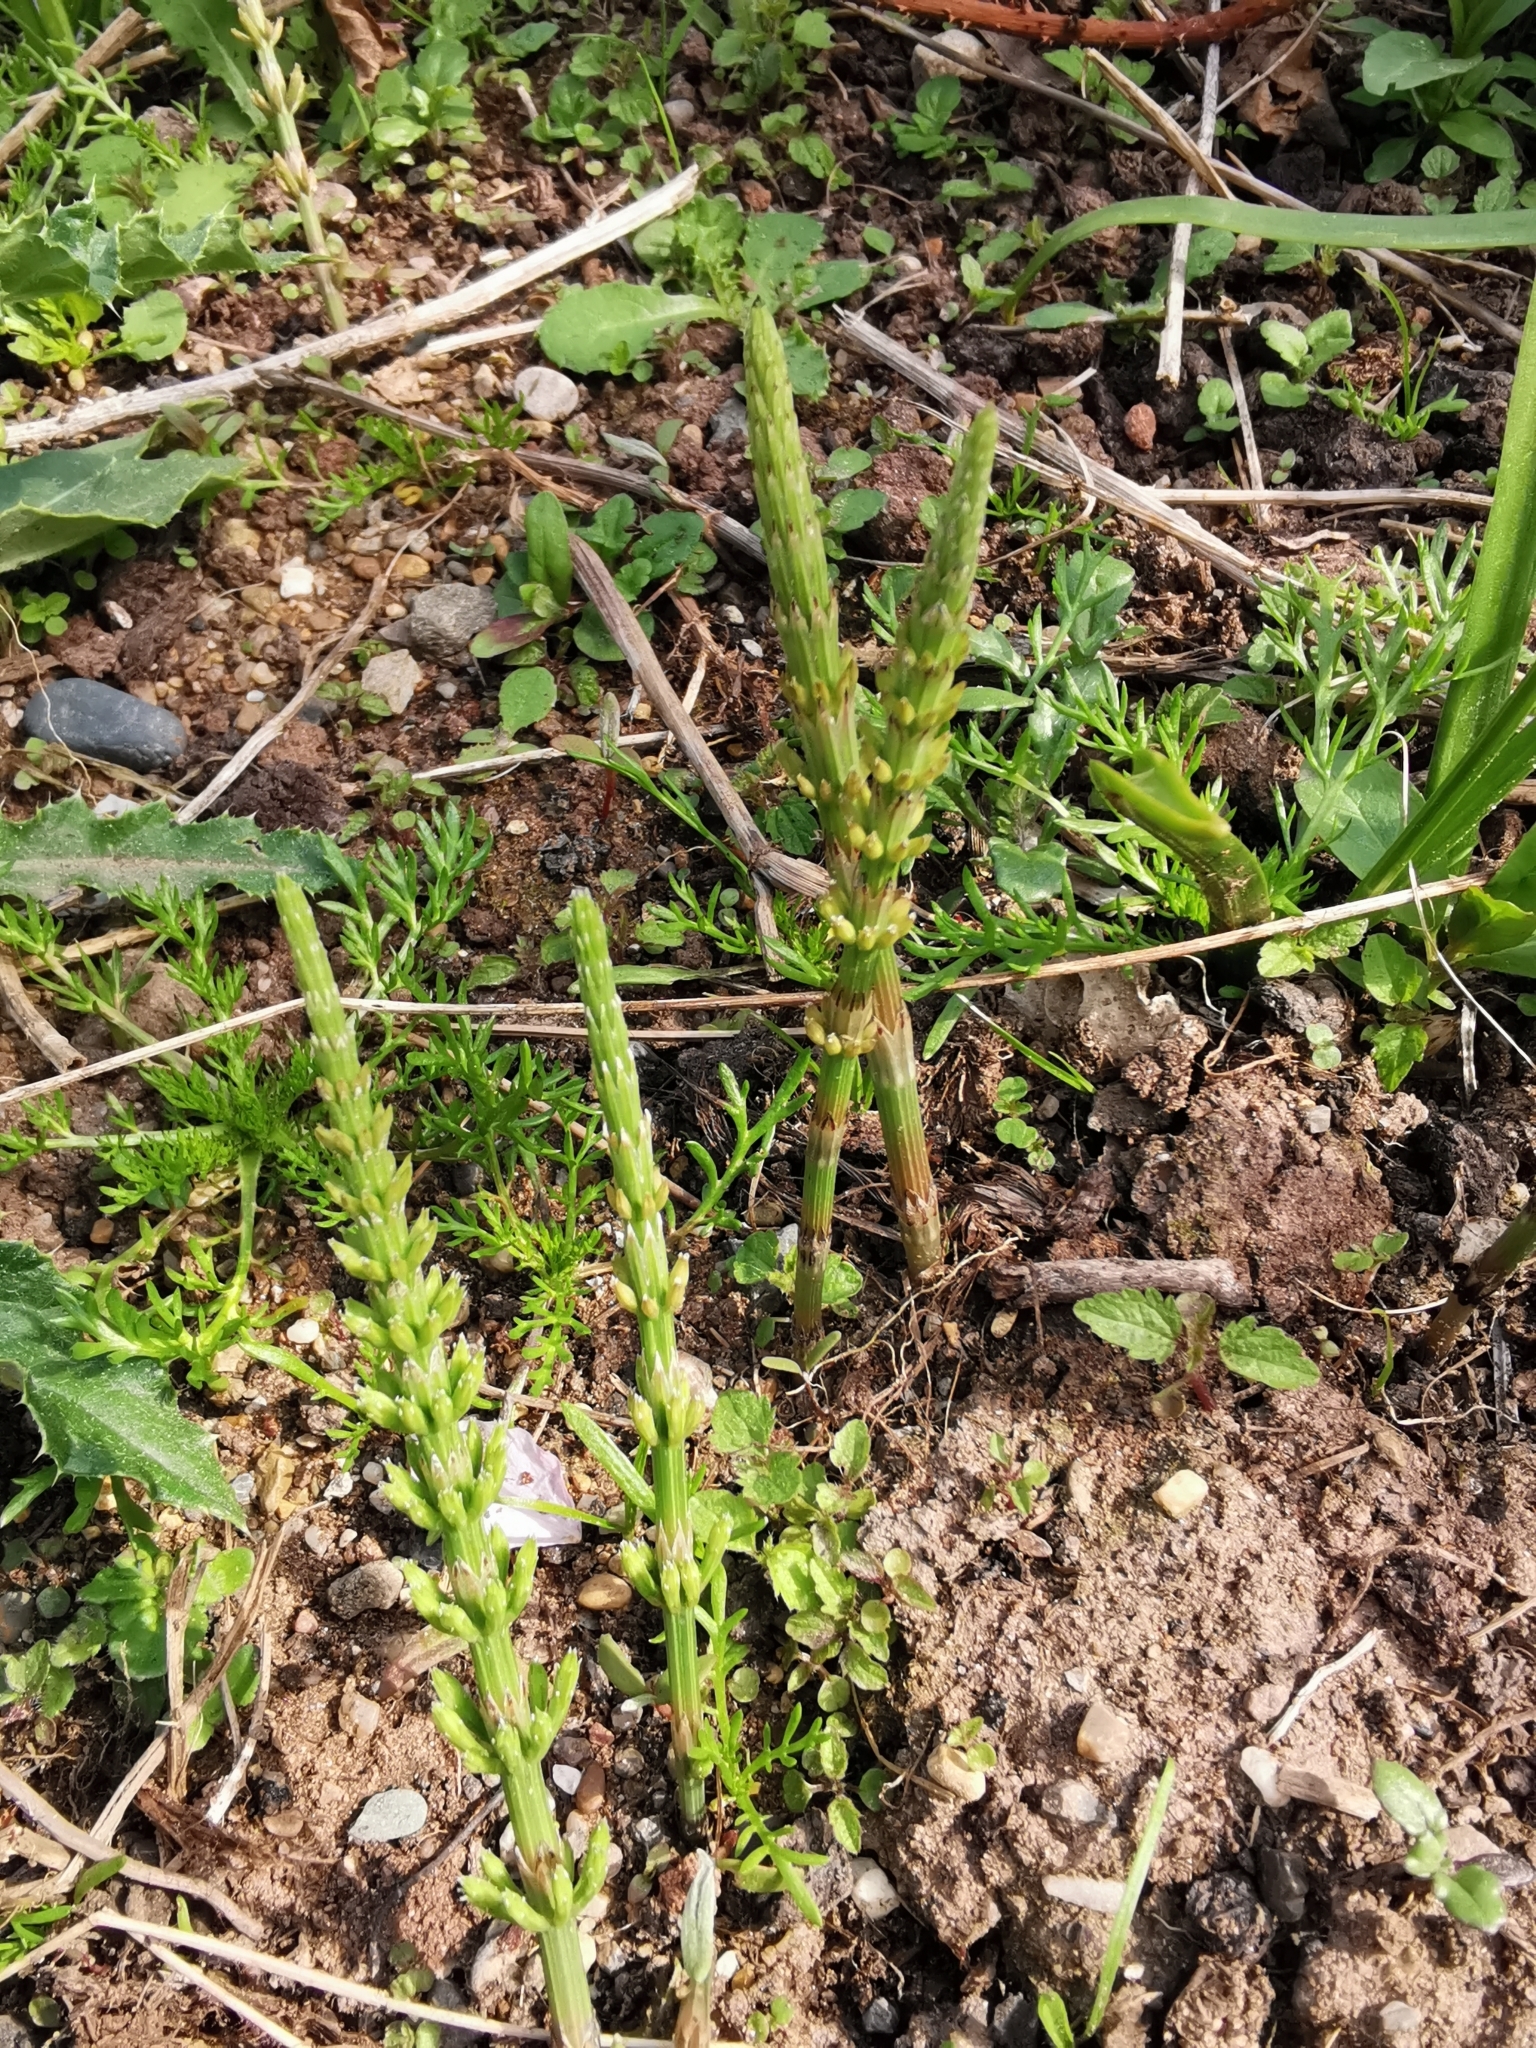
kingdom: Plantae
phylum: Tracheophyta
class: Polypodiopsida
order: Equisetales
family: Equisetaceae
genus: Equisetum
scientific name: Equisetum arvense
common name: Field horsetail
